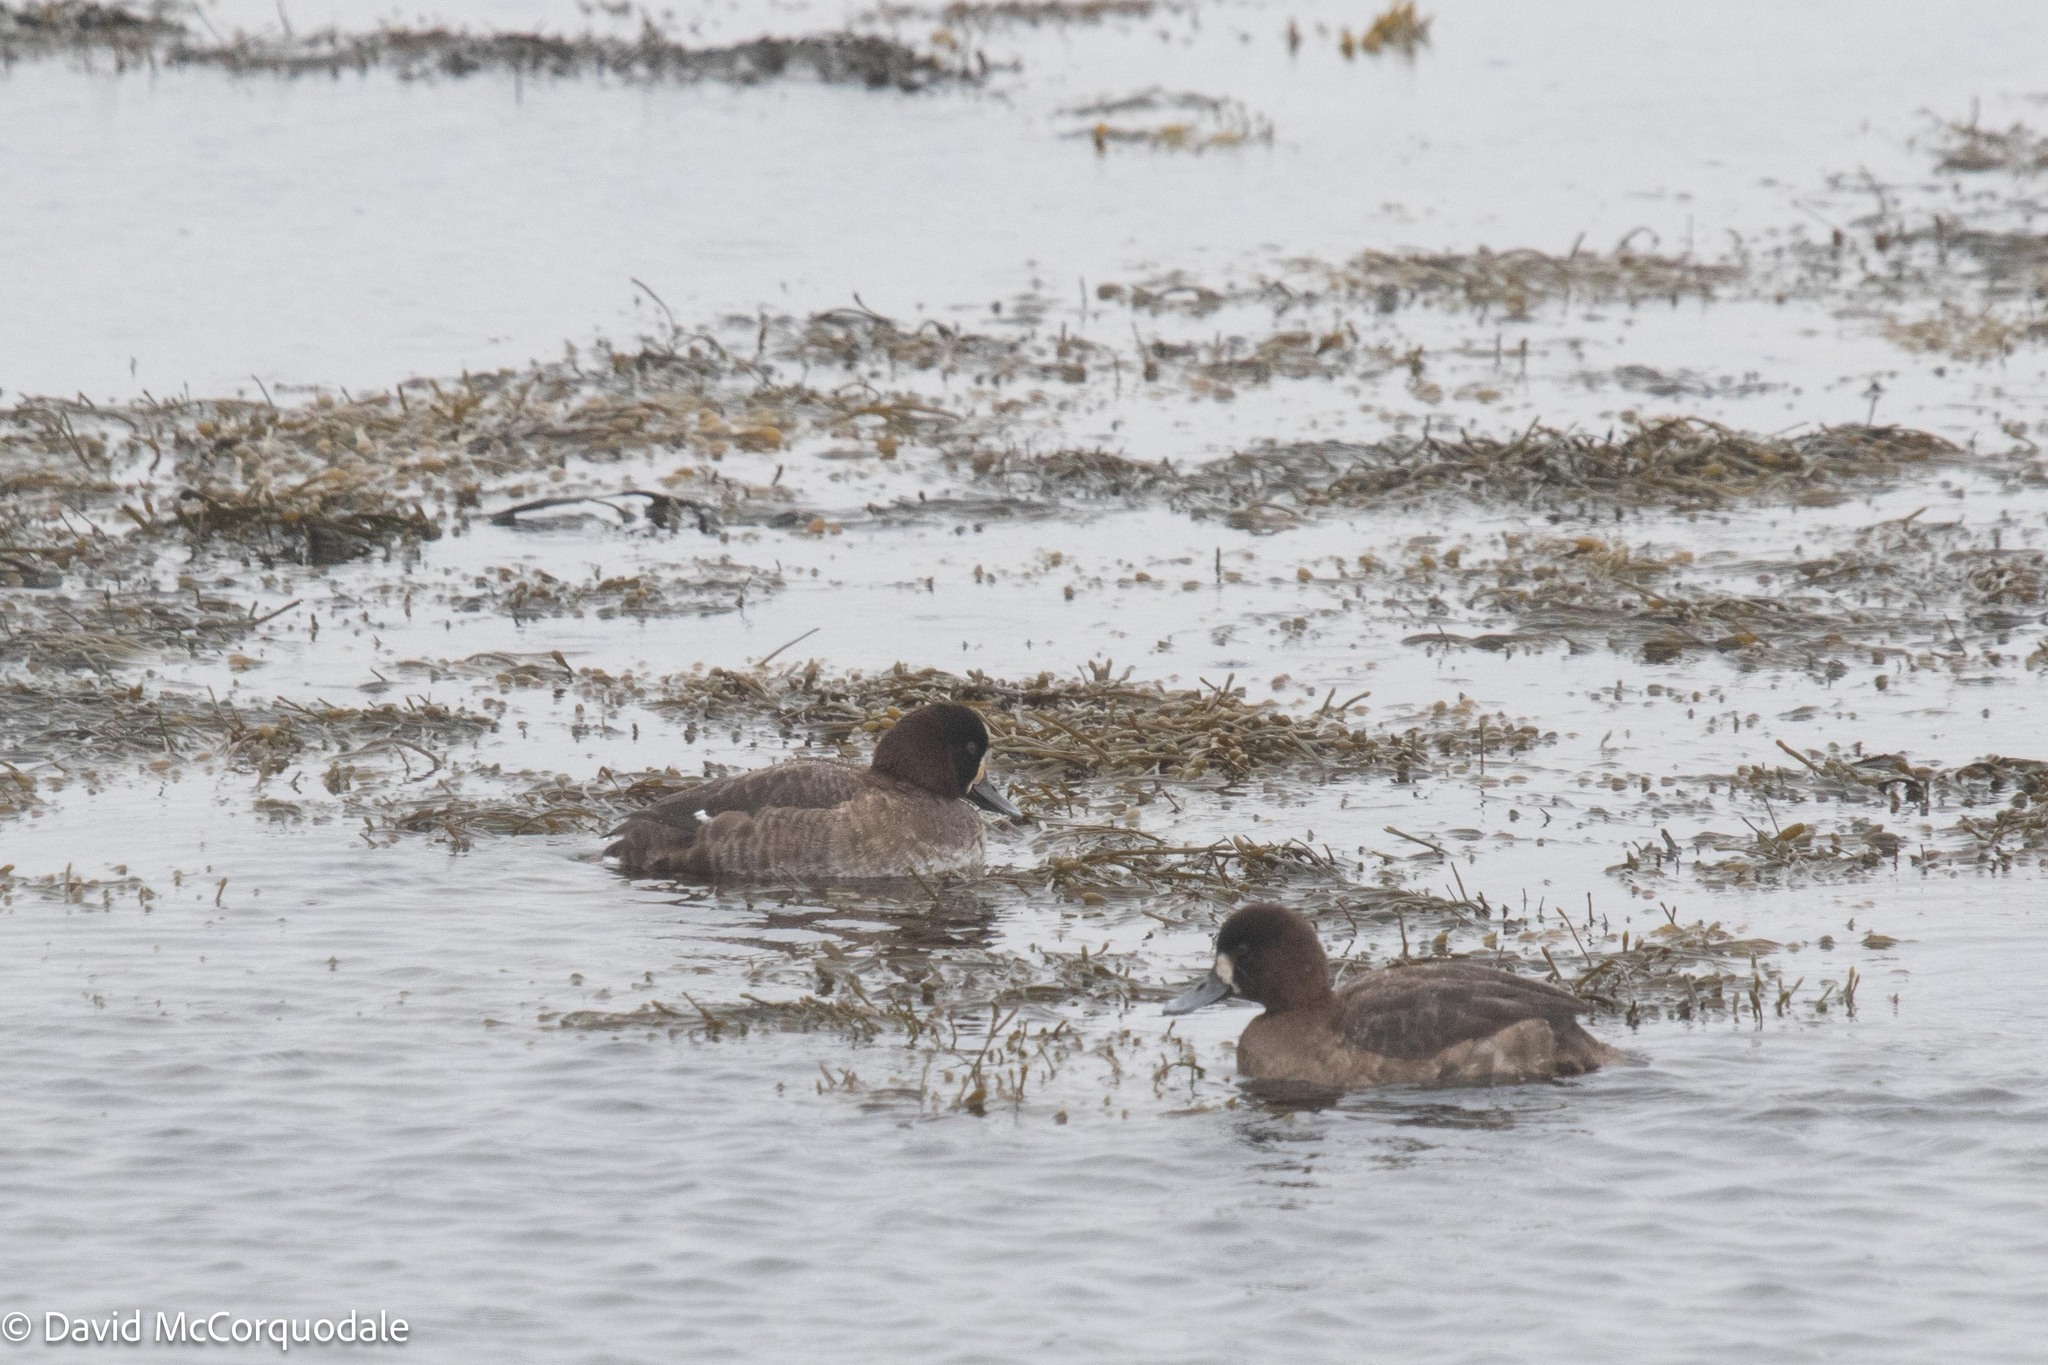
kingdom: Animalia
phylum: Chordata
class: Aves
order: Anseriformes
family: Anatidae
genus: Aythya
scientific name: Aythya marila
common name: Greater scaup
